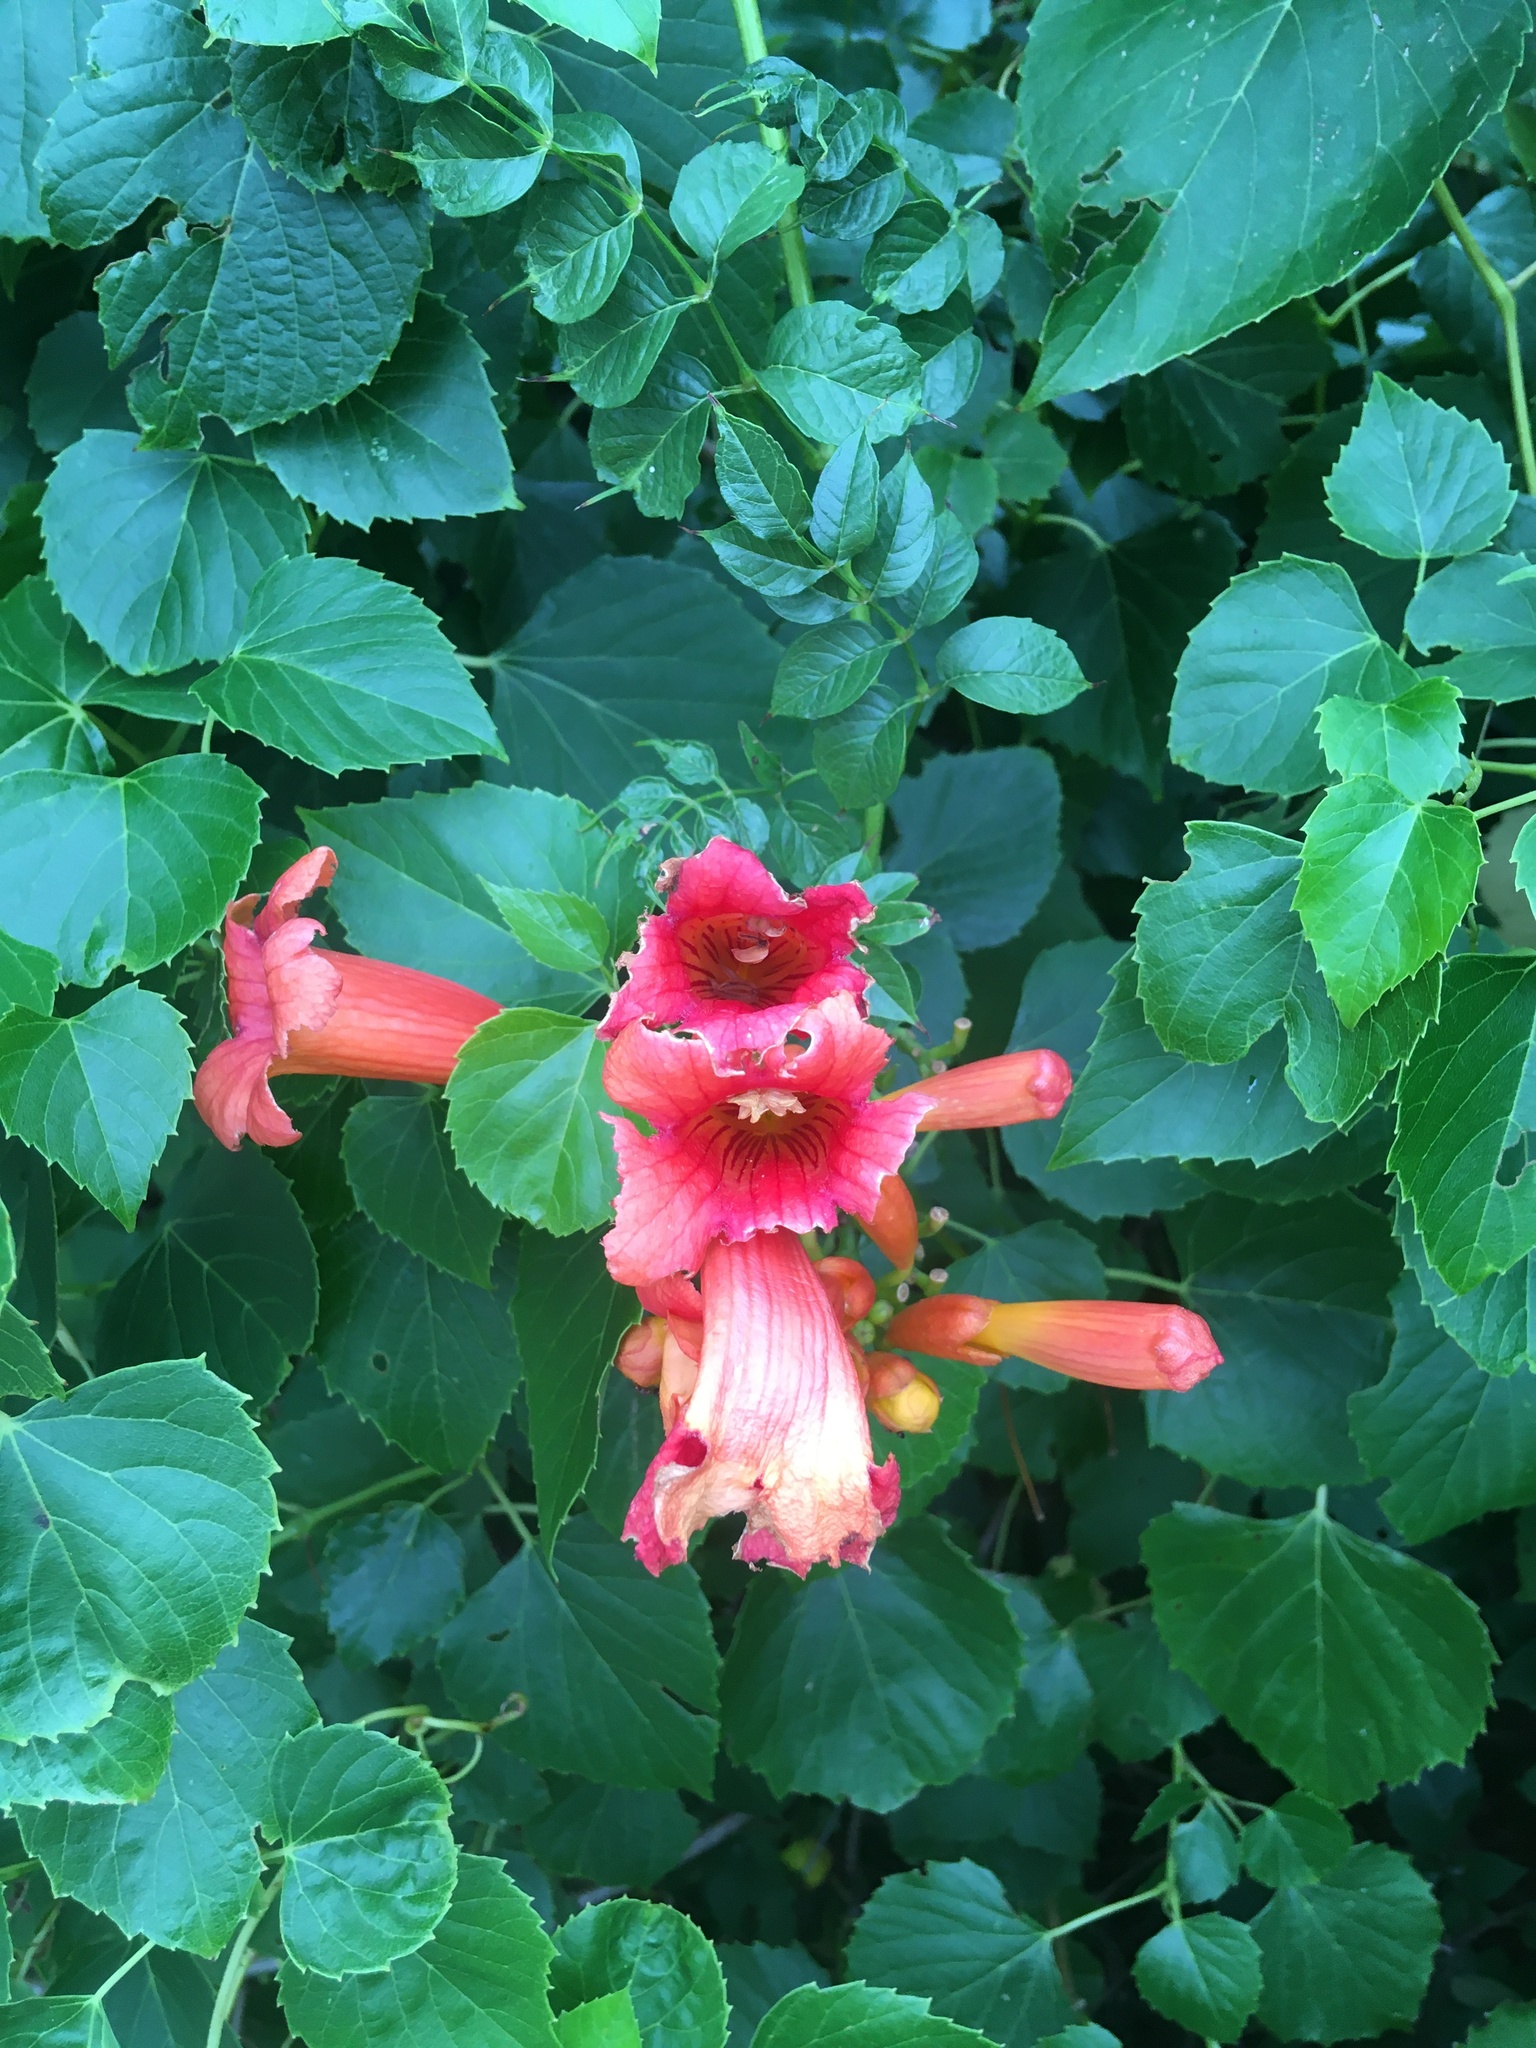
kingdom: Plantae
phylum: Tracheophyta
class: Magnoliopsida
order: Lamiales
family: Bignoniaceae
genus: Campsis
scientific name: Campsis radicans
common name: Trumpet-creeper
